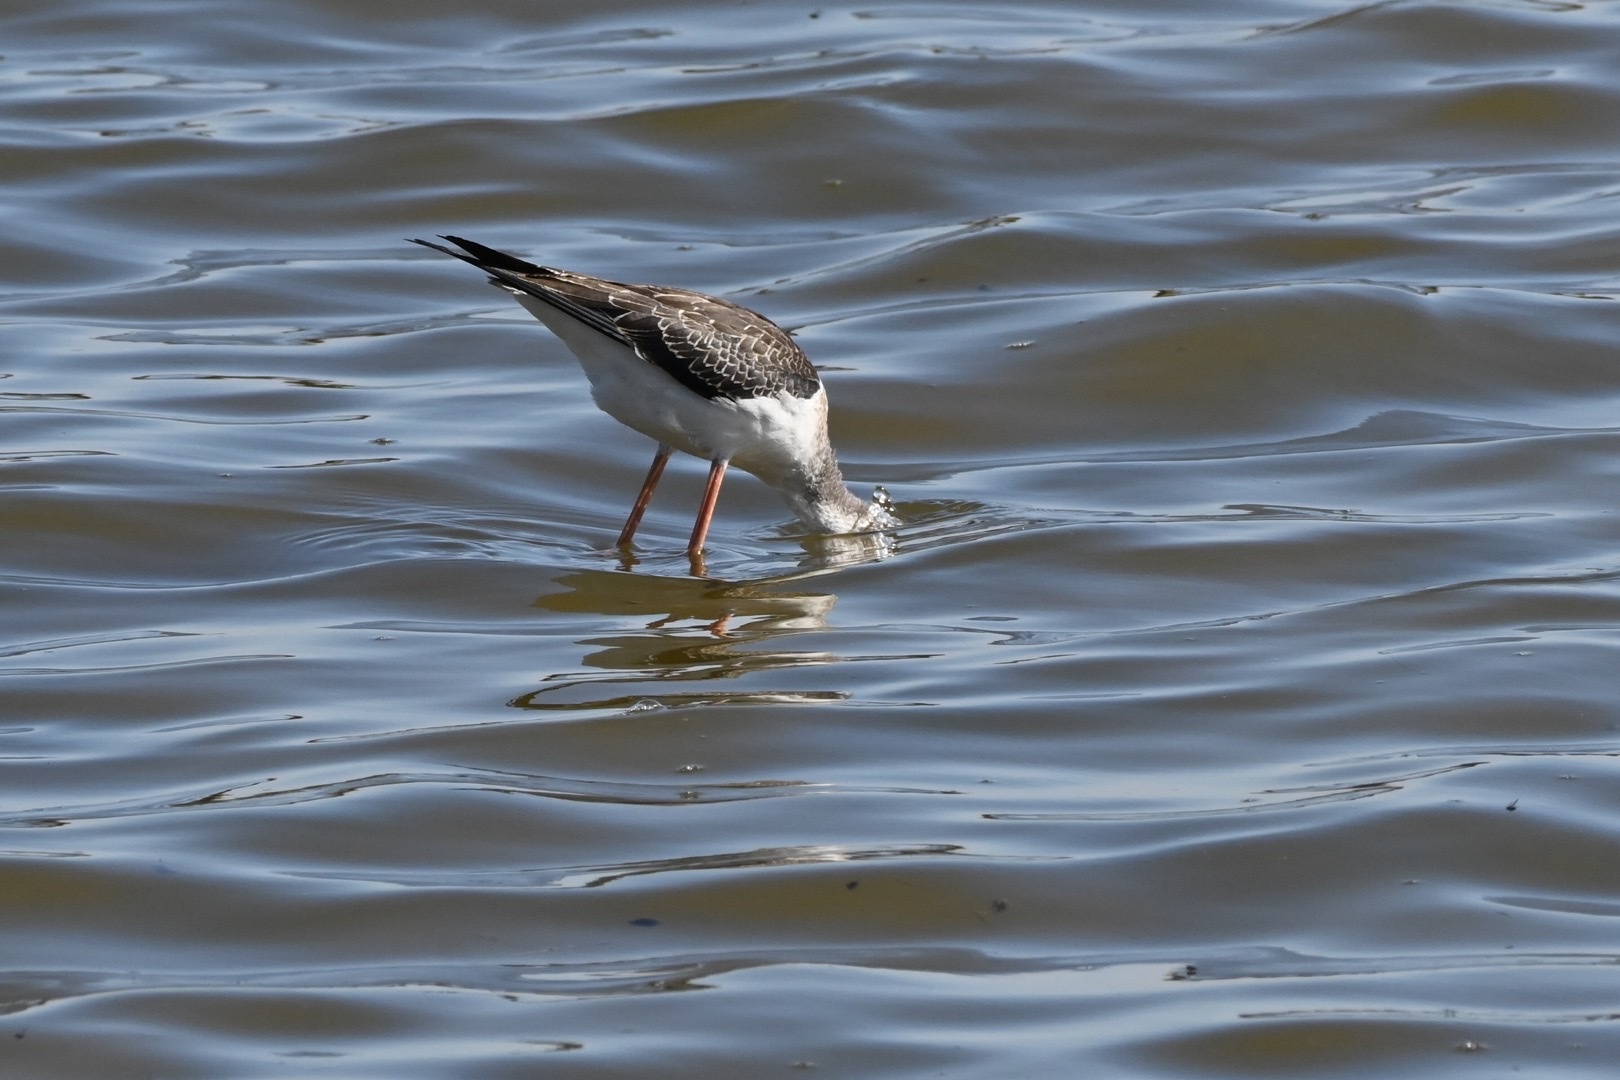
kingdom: Animalia
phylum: Chordata
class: Aves
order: Charadriiformes
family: Recurvirostridae
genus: Himantopus
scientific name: Himantopus himantopus
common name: Black-winged stilt
